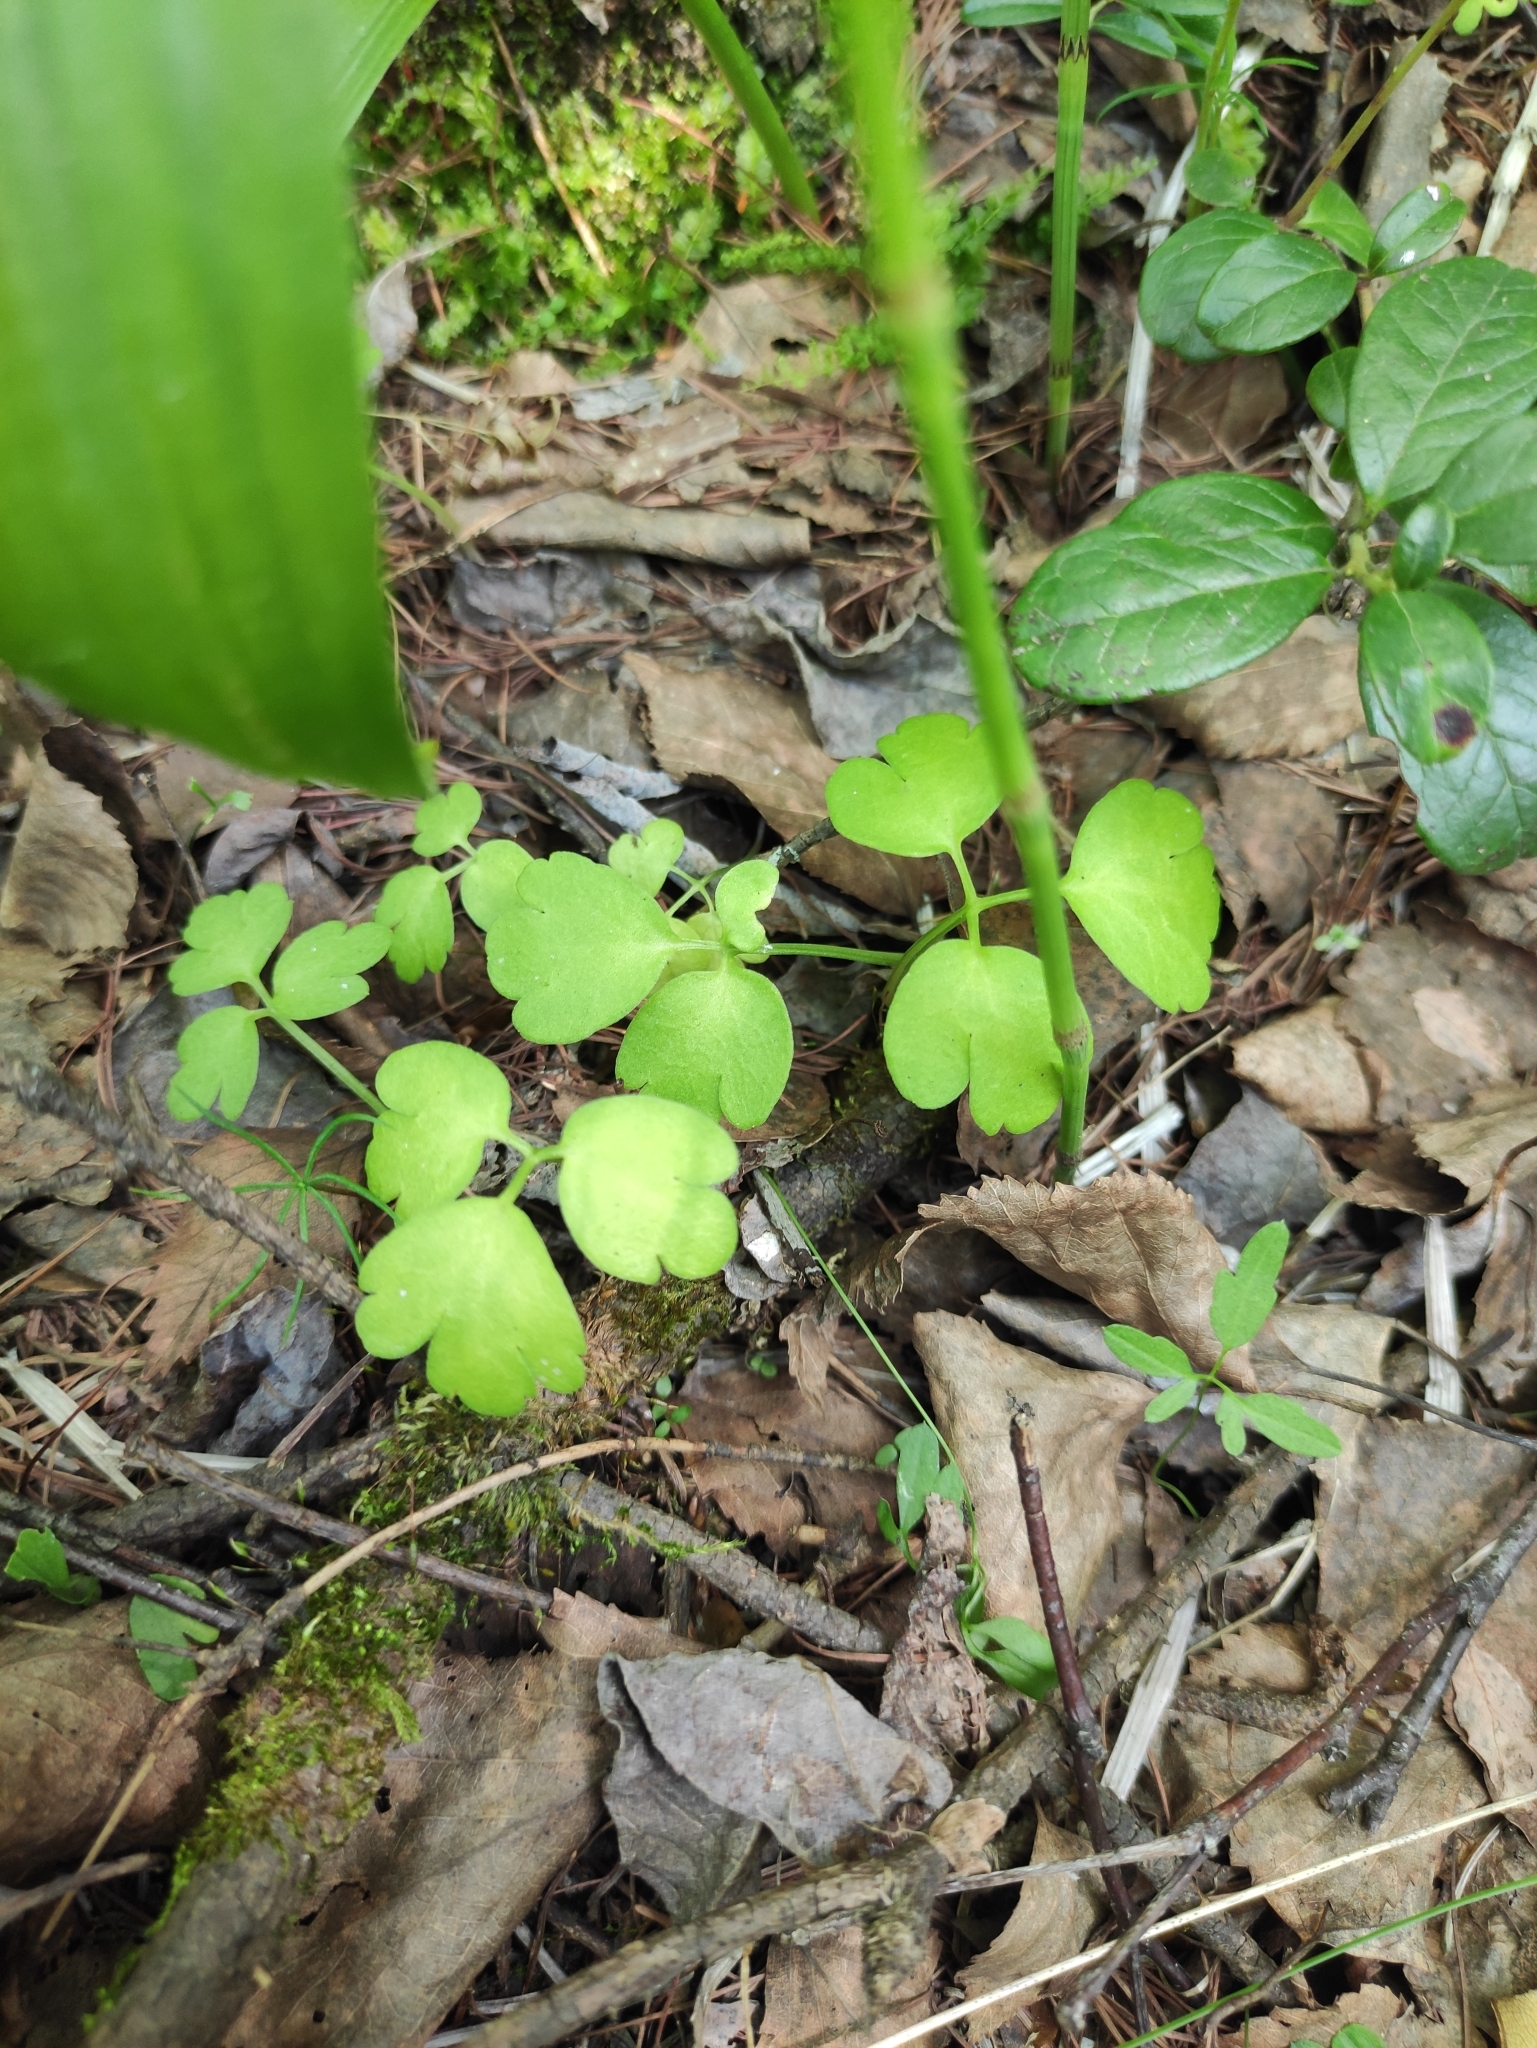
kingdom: Plantae
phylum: Tracheophyta
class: Magnoliopsida
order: Dipsacales
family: Viburnaceae
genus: Adoxa
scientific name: Adoxa moschatellina
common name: Moschatel
